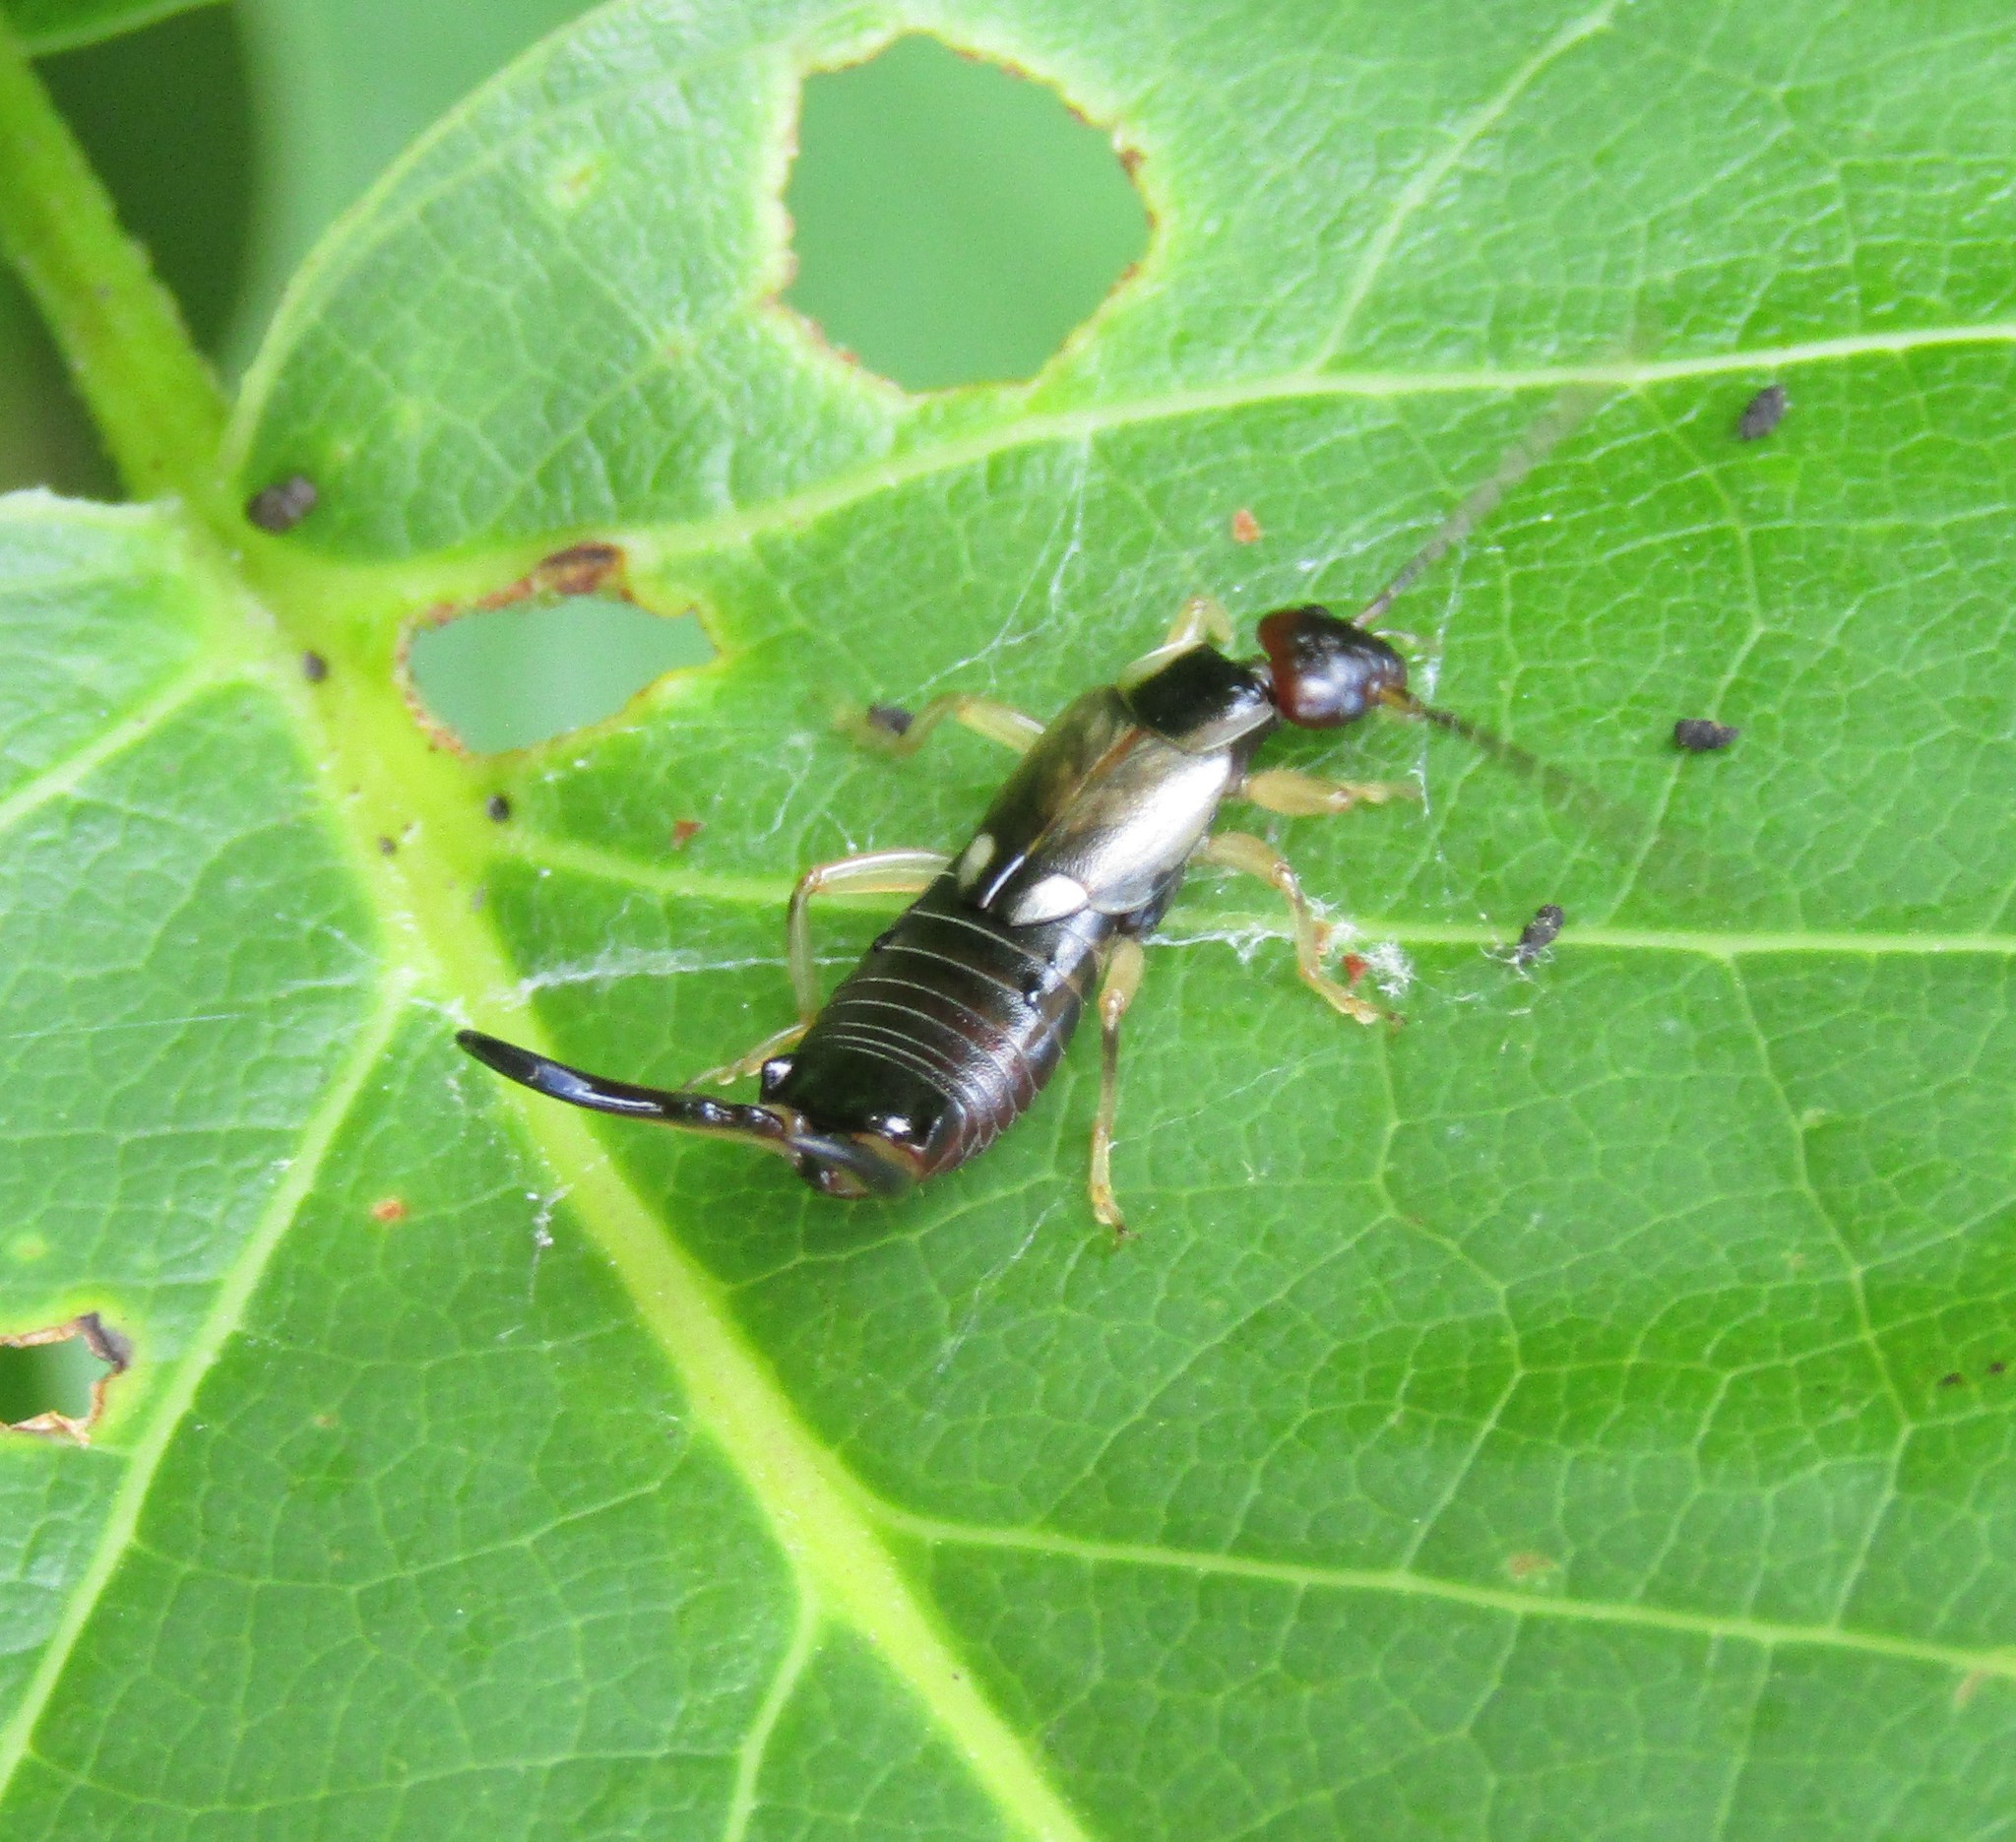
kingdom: Animalia
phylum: Arthropoda
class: Insecta
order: Dermaptera
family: Forficulidae
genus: Forficula
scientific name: Forficula
